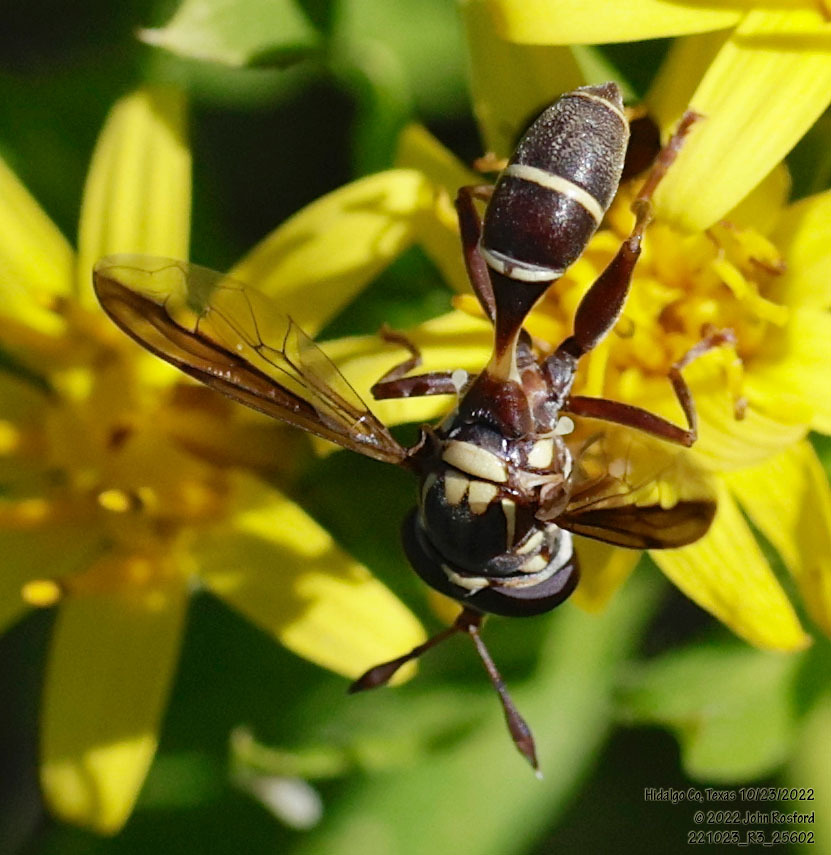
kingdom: Animalia
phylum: Arthropoda
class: Insecta
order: Diptera
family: Syrphidae
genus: Polybiomyia
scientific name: Polybiomyia macquarti
